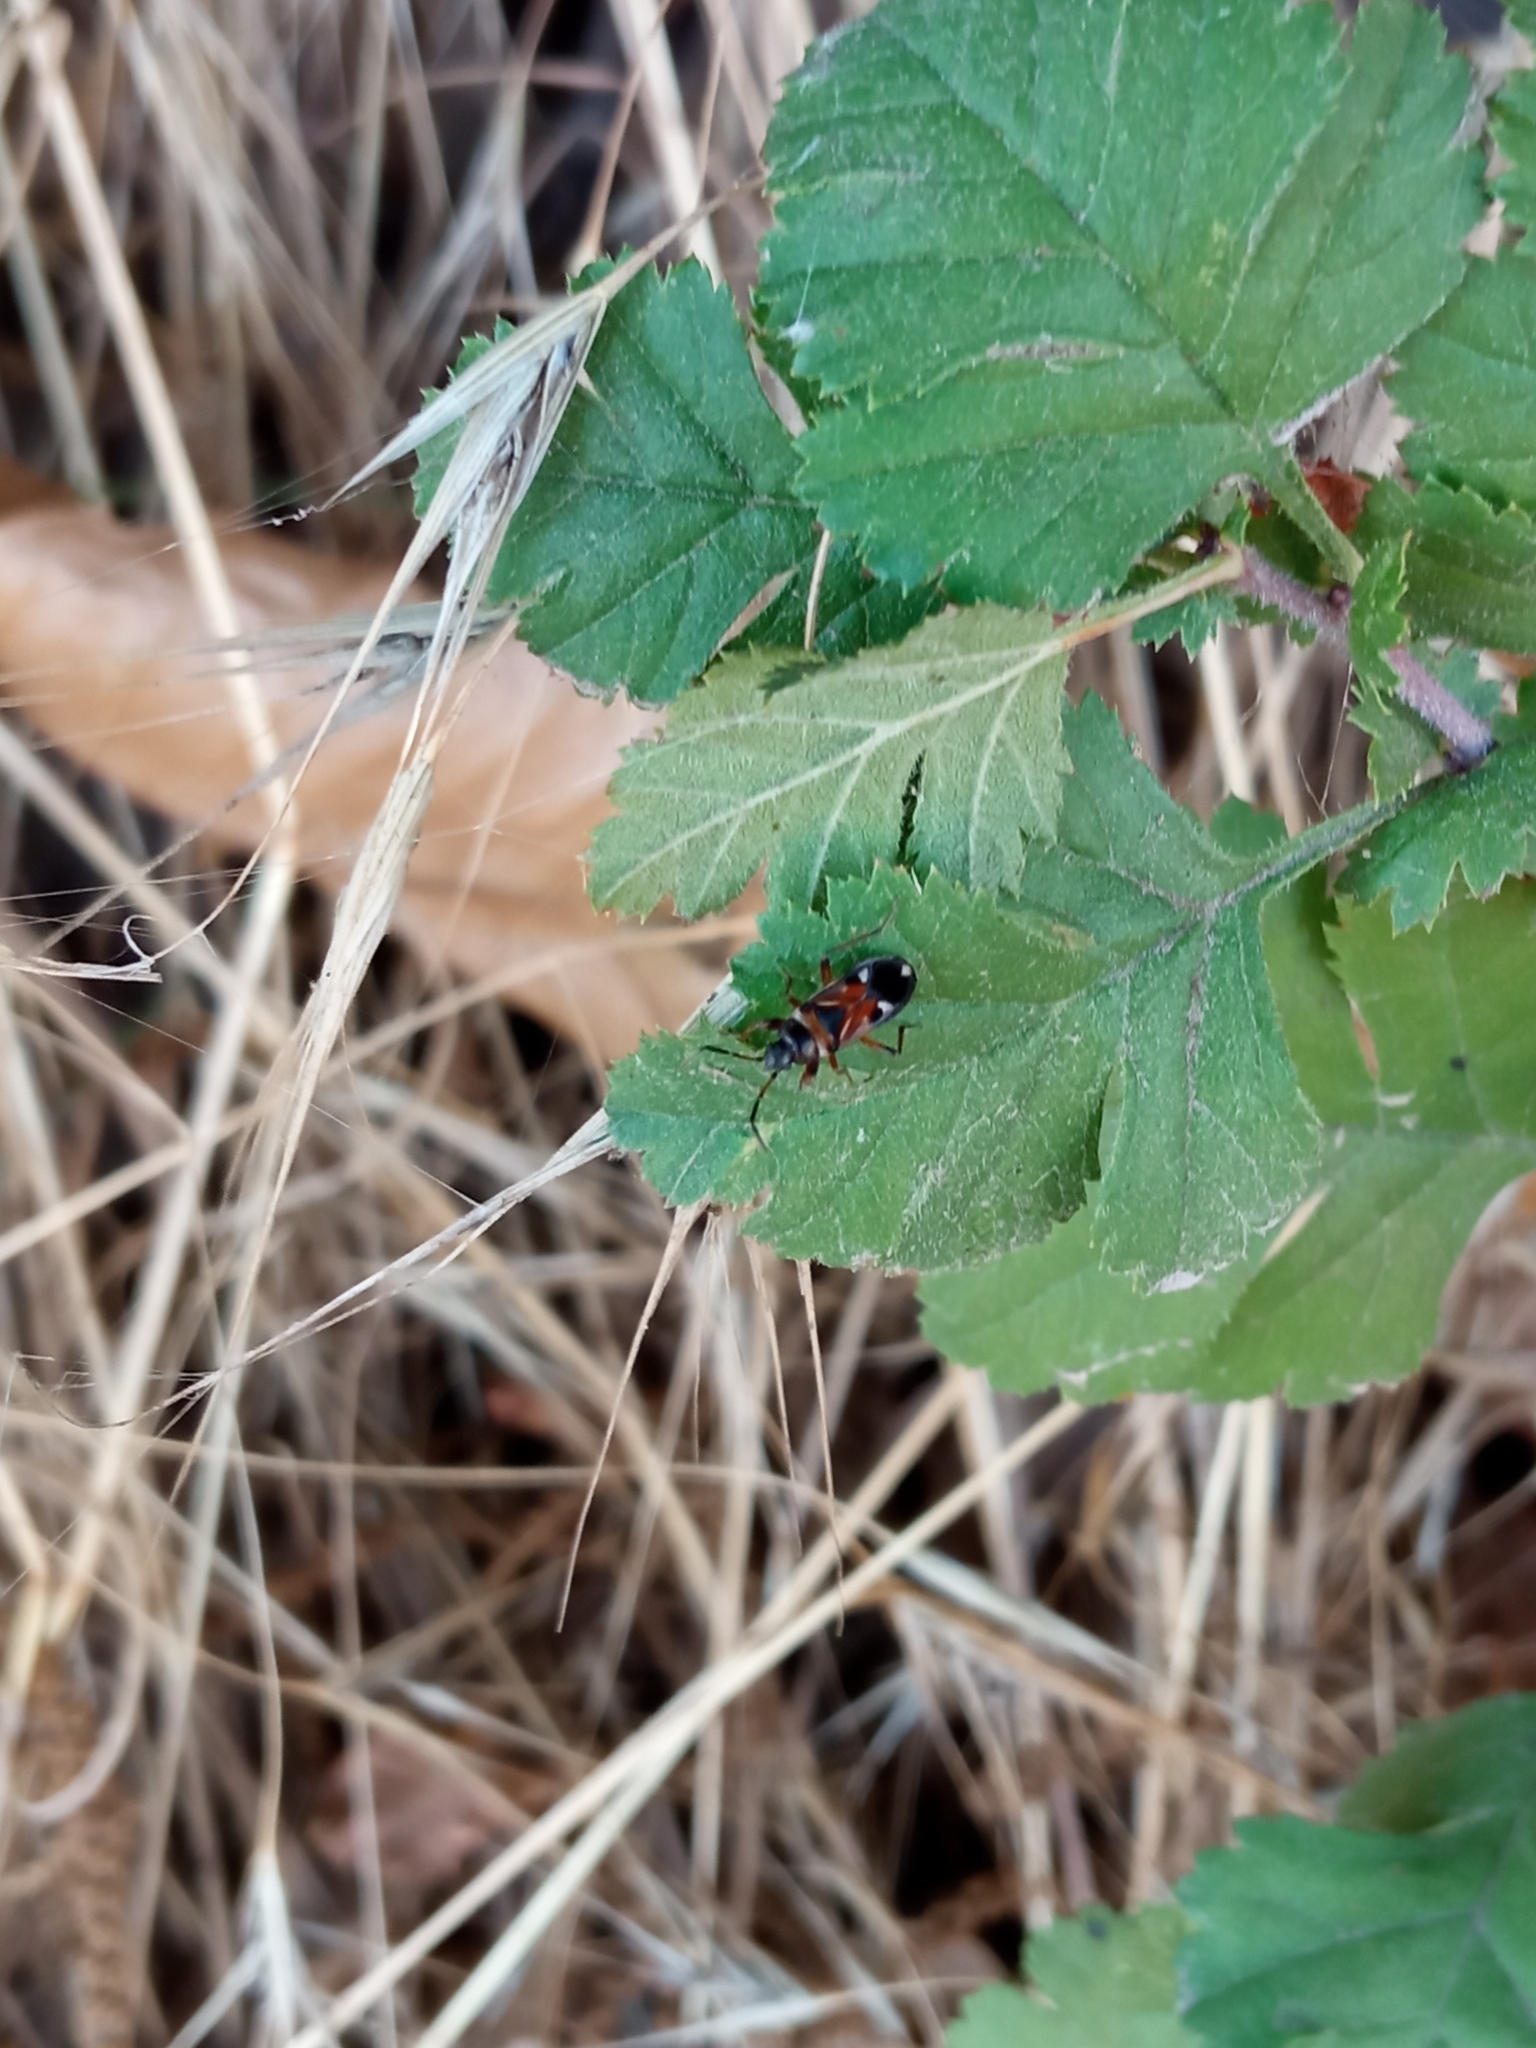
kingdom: Animalia
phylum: Arthropoda
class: Insecta
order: Hemiptera
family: Rhyparochromidae
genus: Raglius
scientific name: Raglius alboacuminatus
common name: Dirt-colored seed bug
